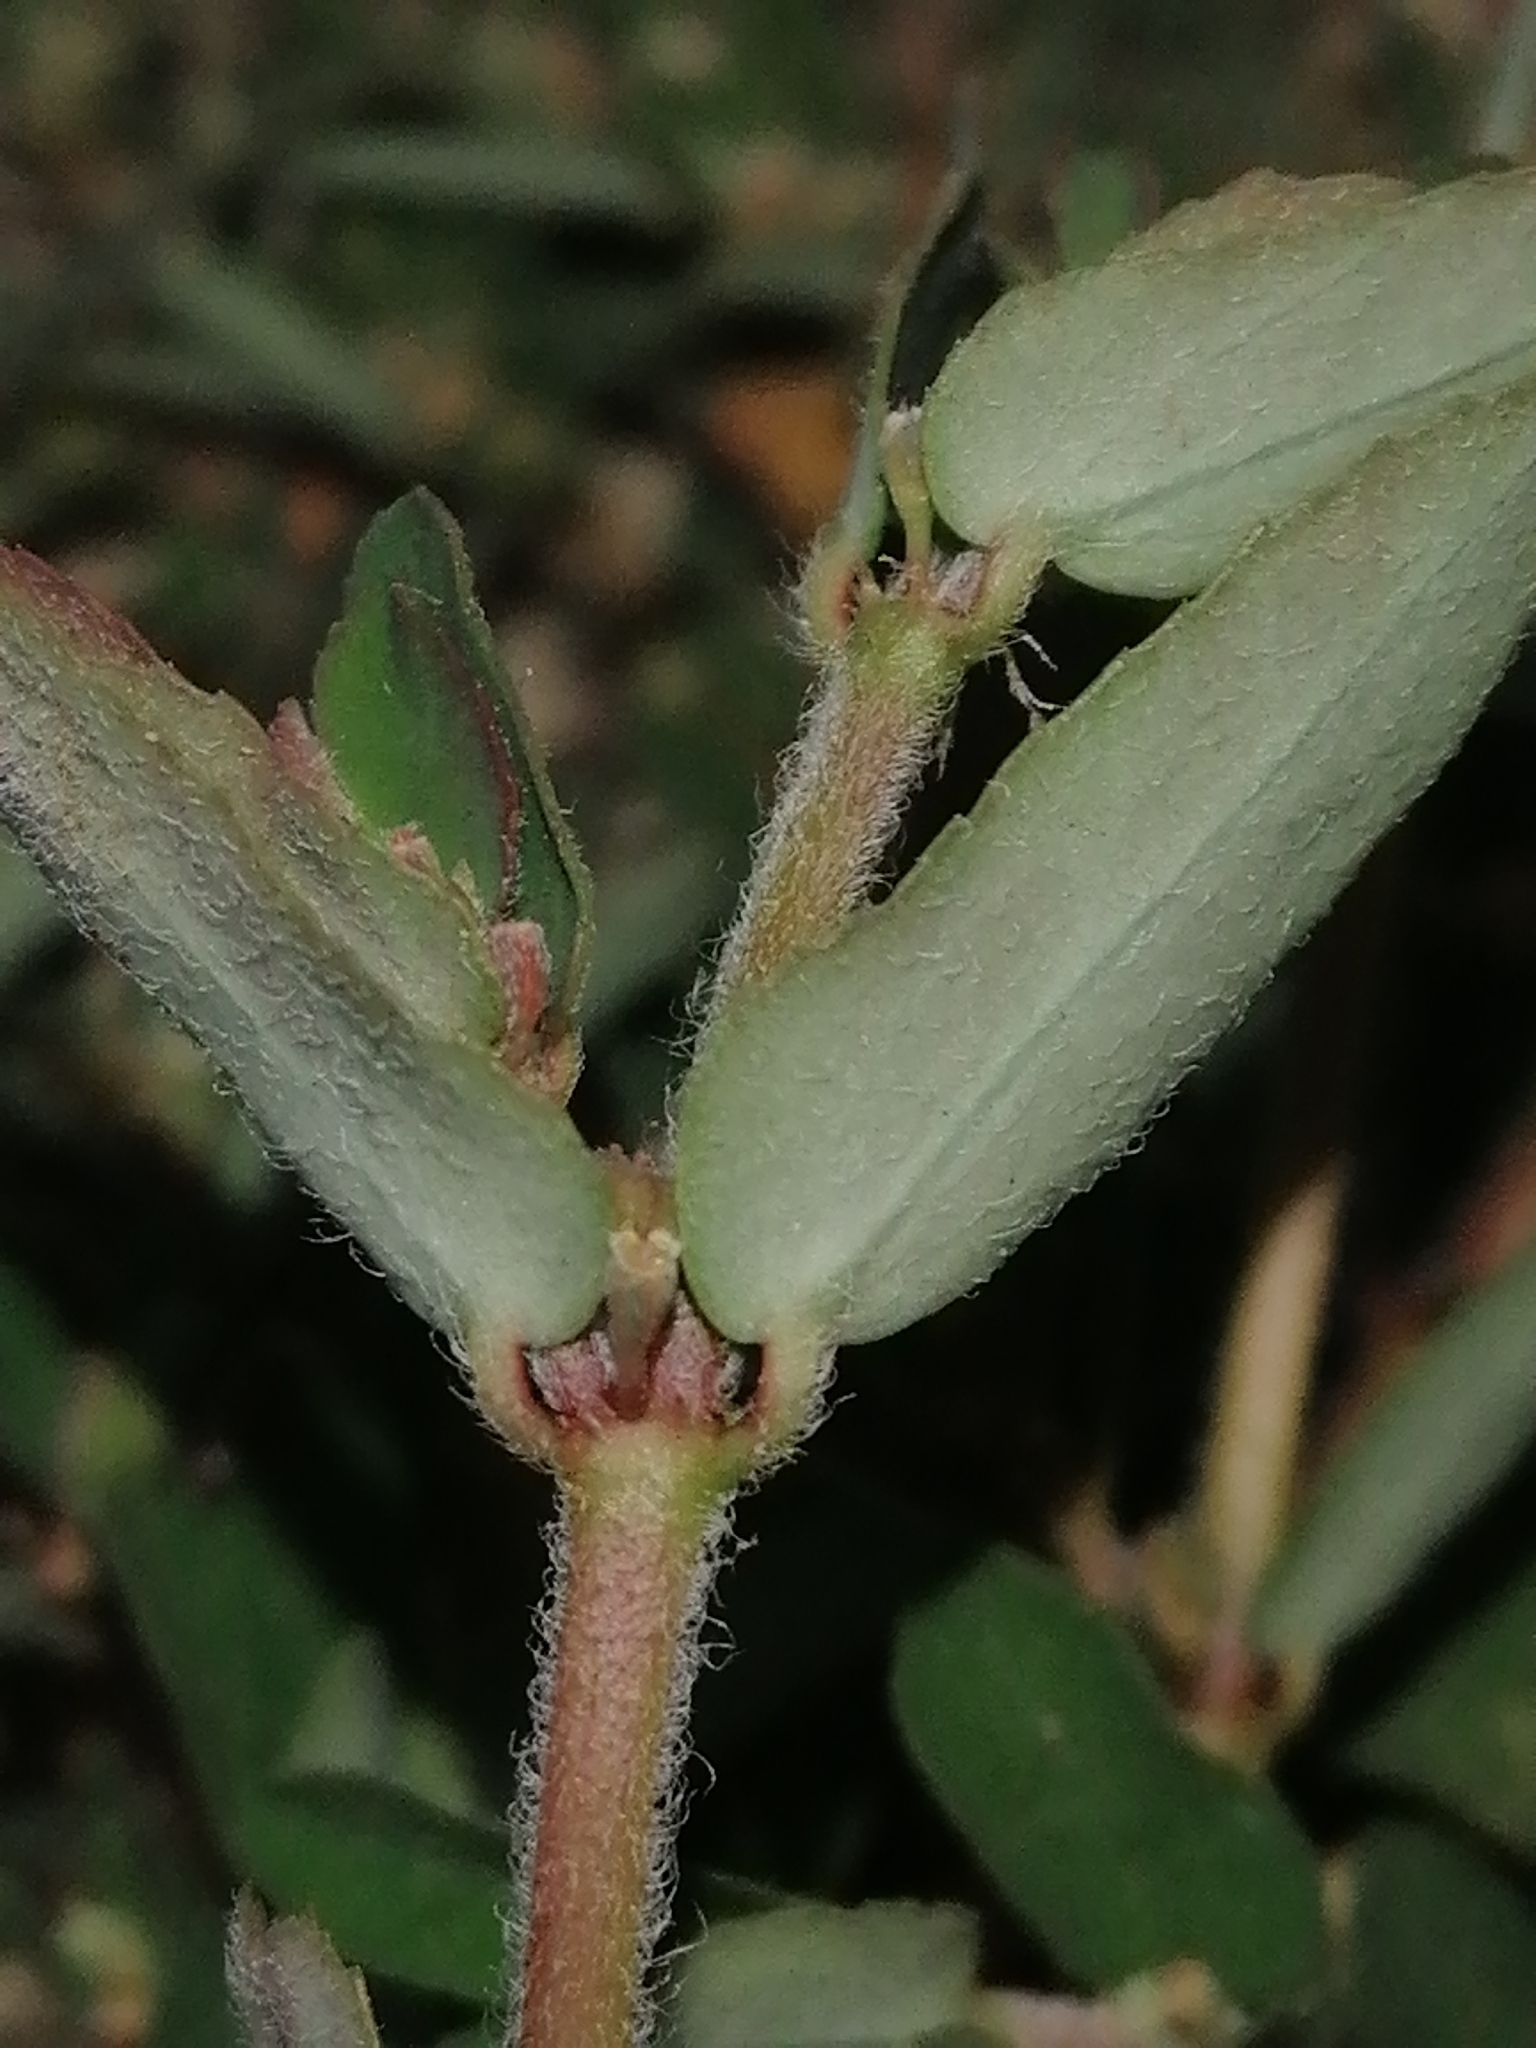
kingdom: Plantae
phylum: Tracheophyta
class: Magnoliopsida
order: Malpighiales
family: Euphorbiaceae
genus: Euphorbia
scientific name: Euphorbia maculata
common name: Spotted spurge
